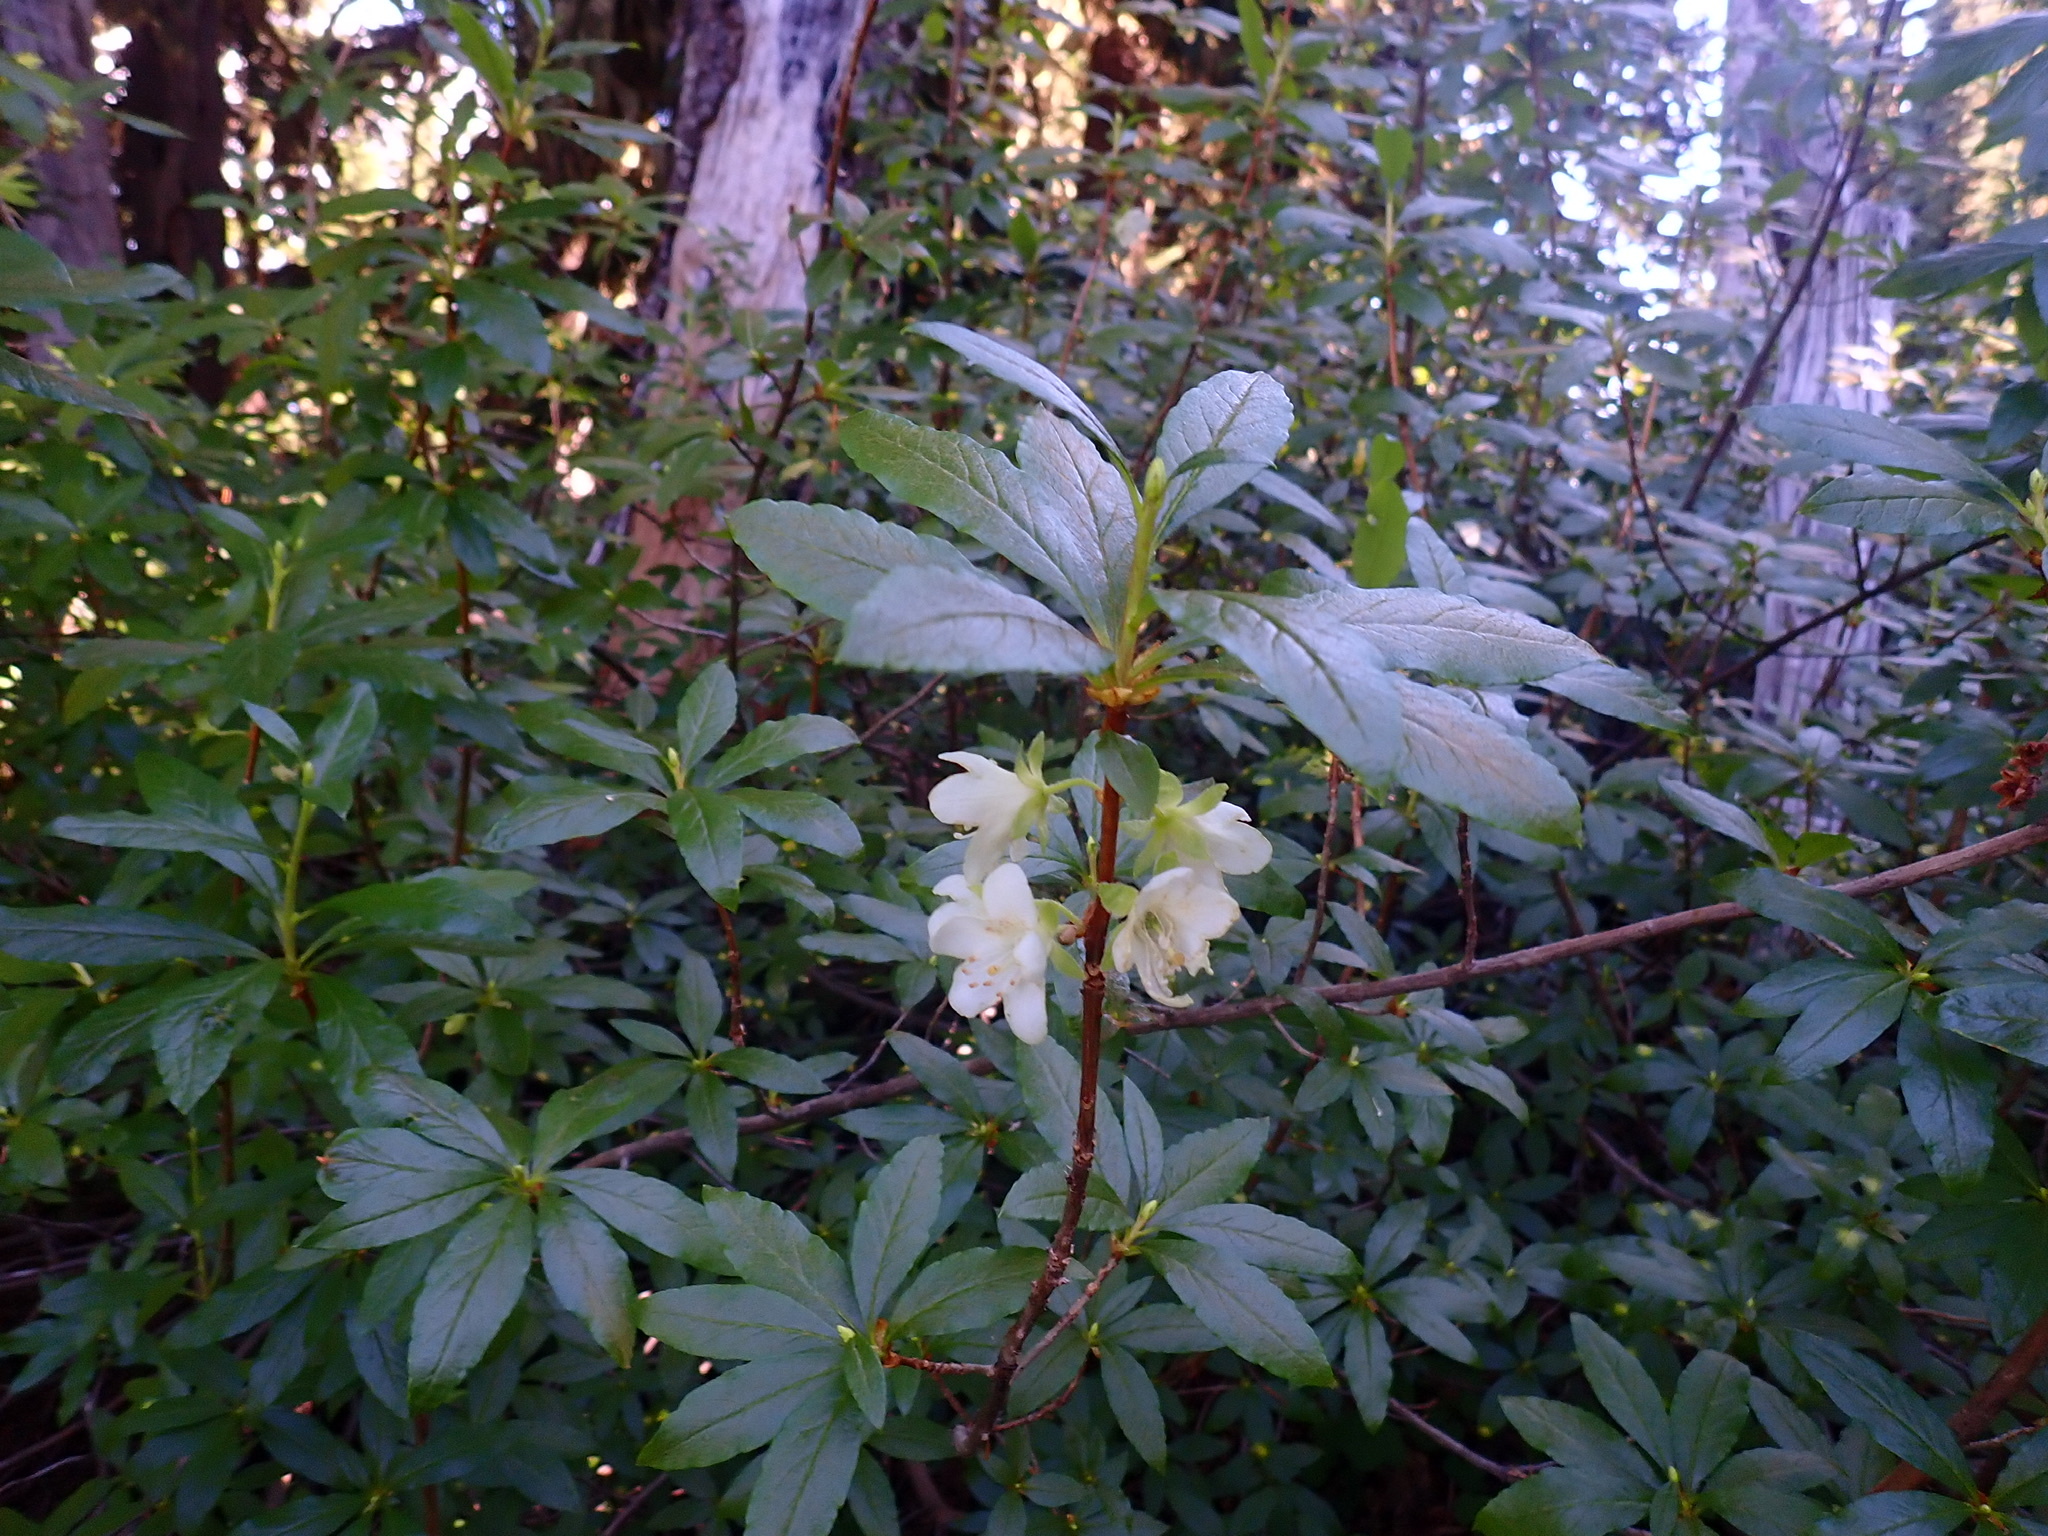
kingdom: Plantae
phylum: Tracheophyta
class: Magnoliopsida
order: Ericales
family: Ericaceae
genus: Rhododendron
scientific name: Rhododendron albiflorum
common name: White rhododendron
